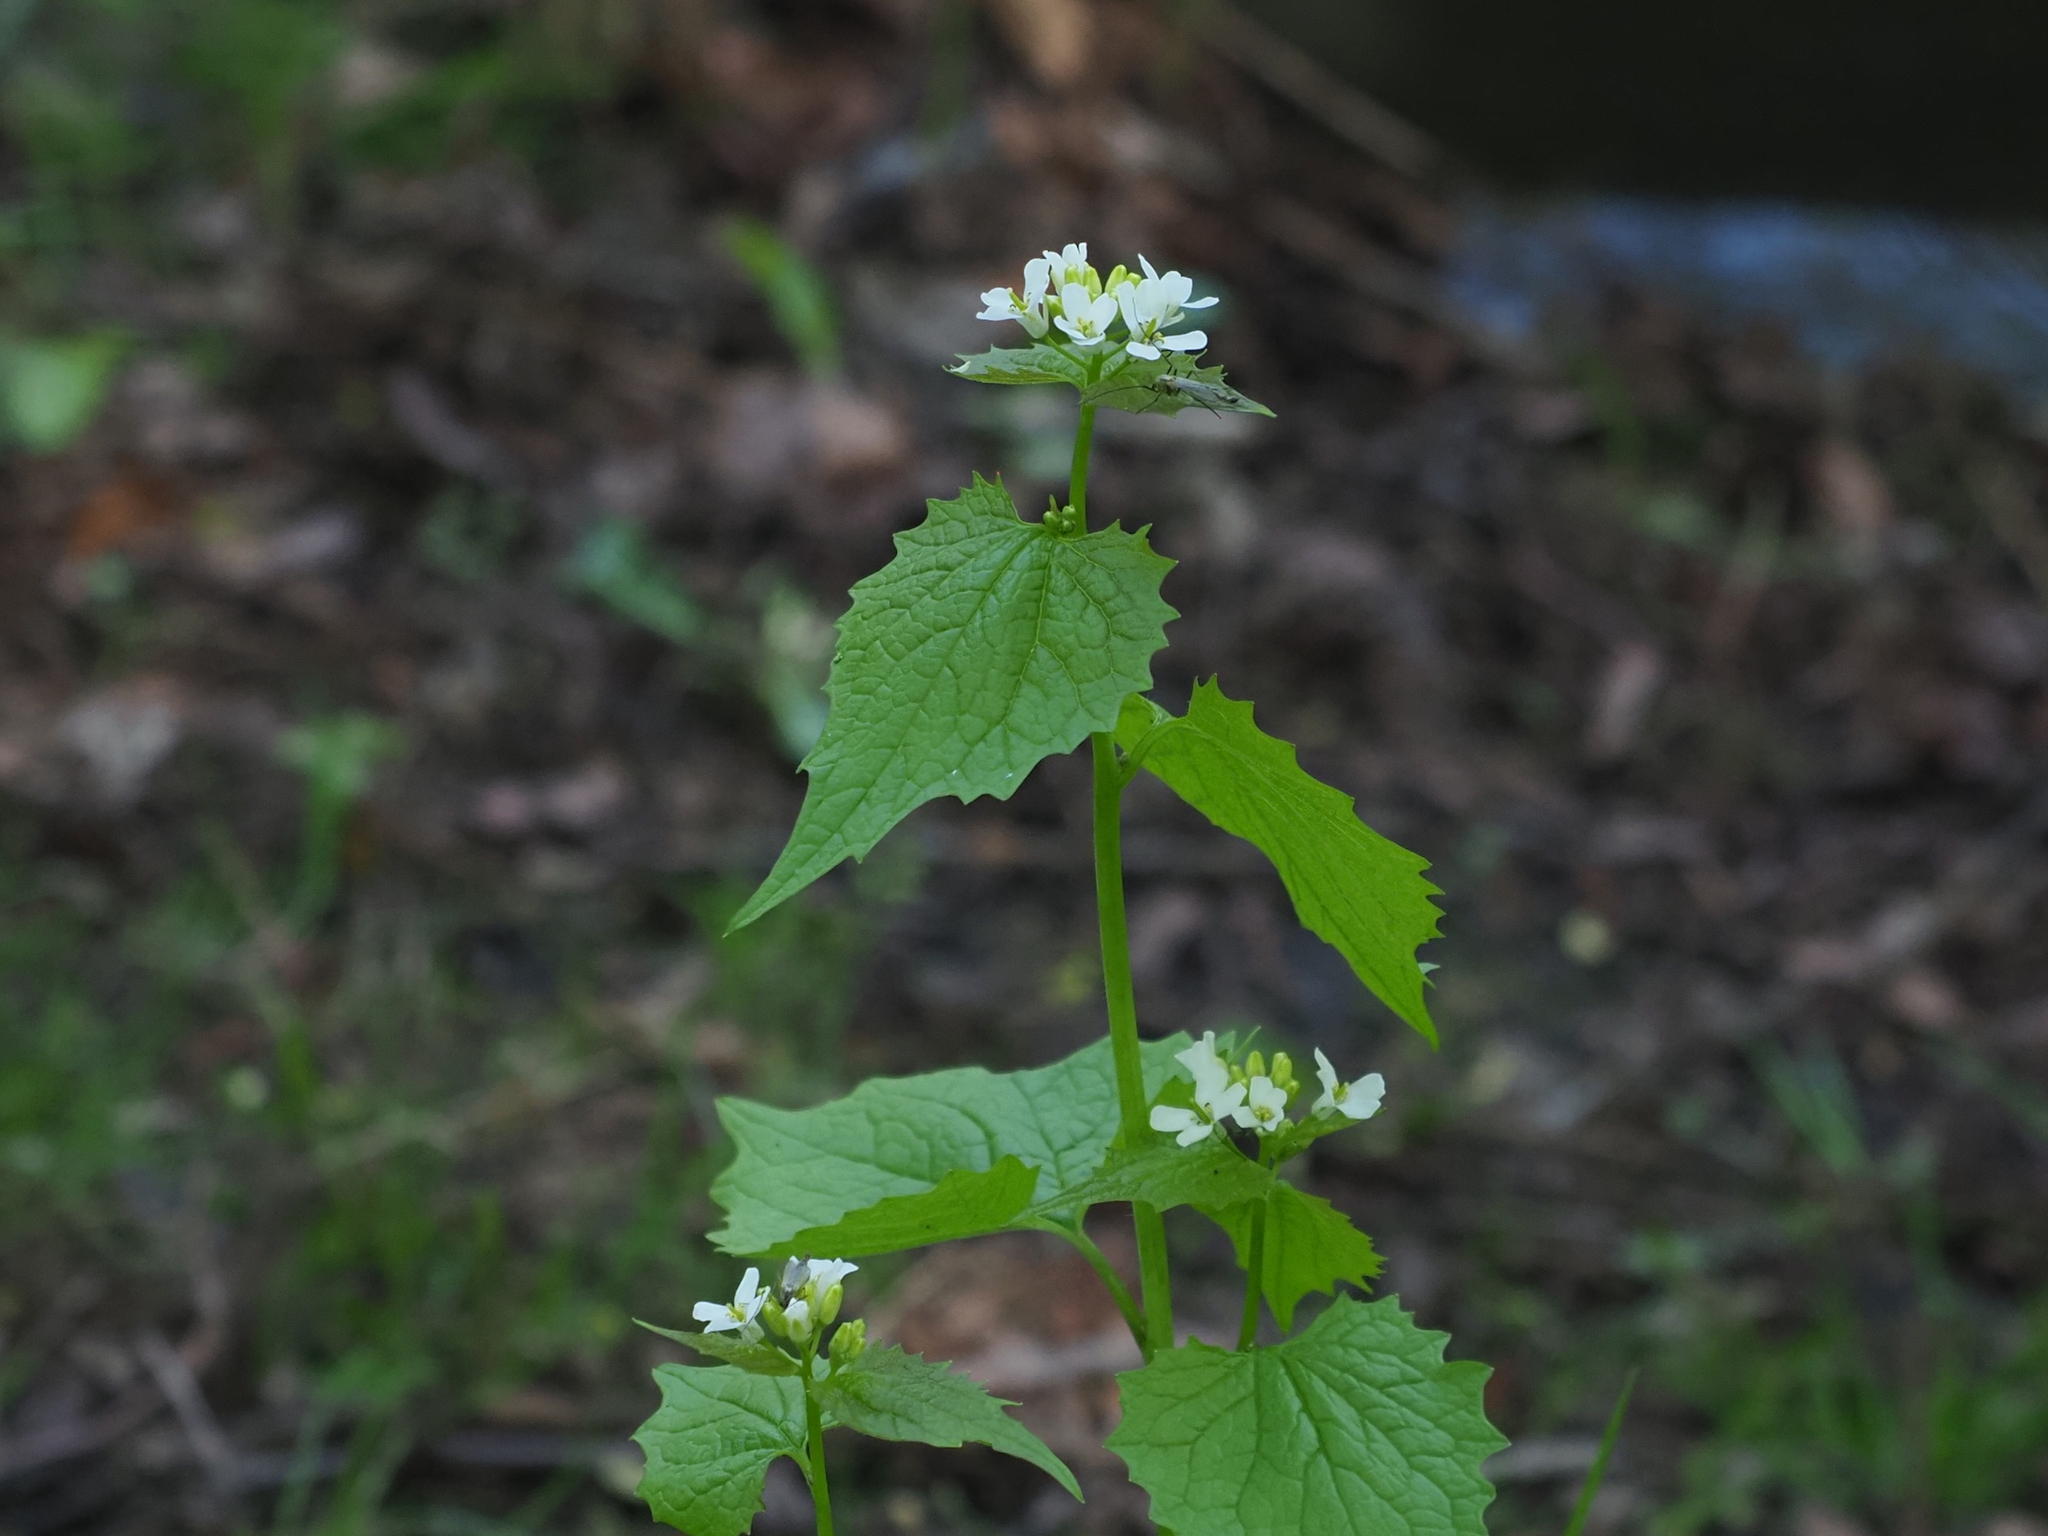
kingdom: Plantae
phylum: Tracheophyta
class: Magnoliopsida
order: Brassicales
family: Brassicaceae
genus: Alliaria
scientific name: Alliaria petiolata
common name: Garlic mustard
